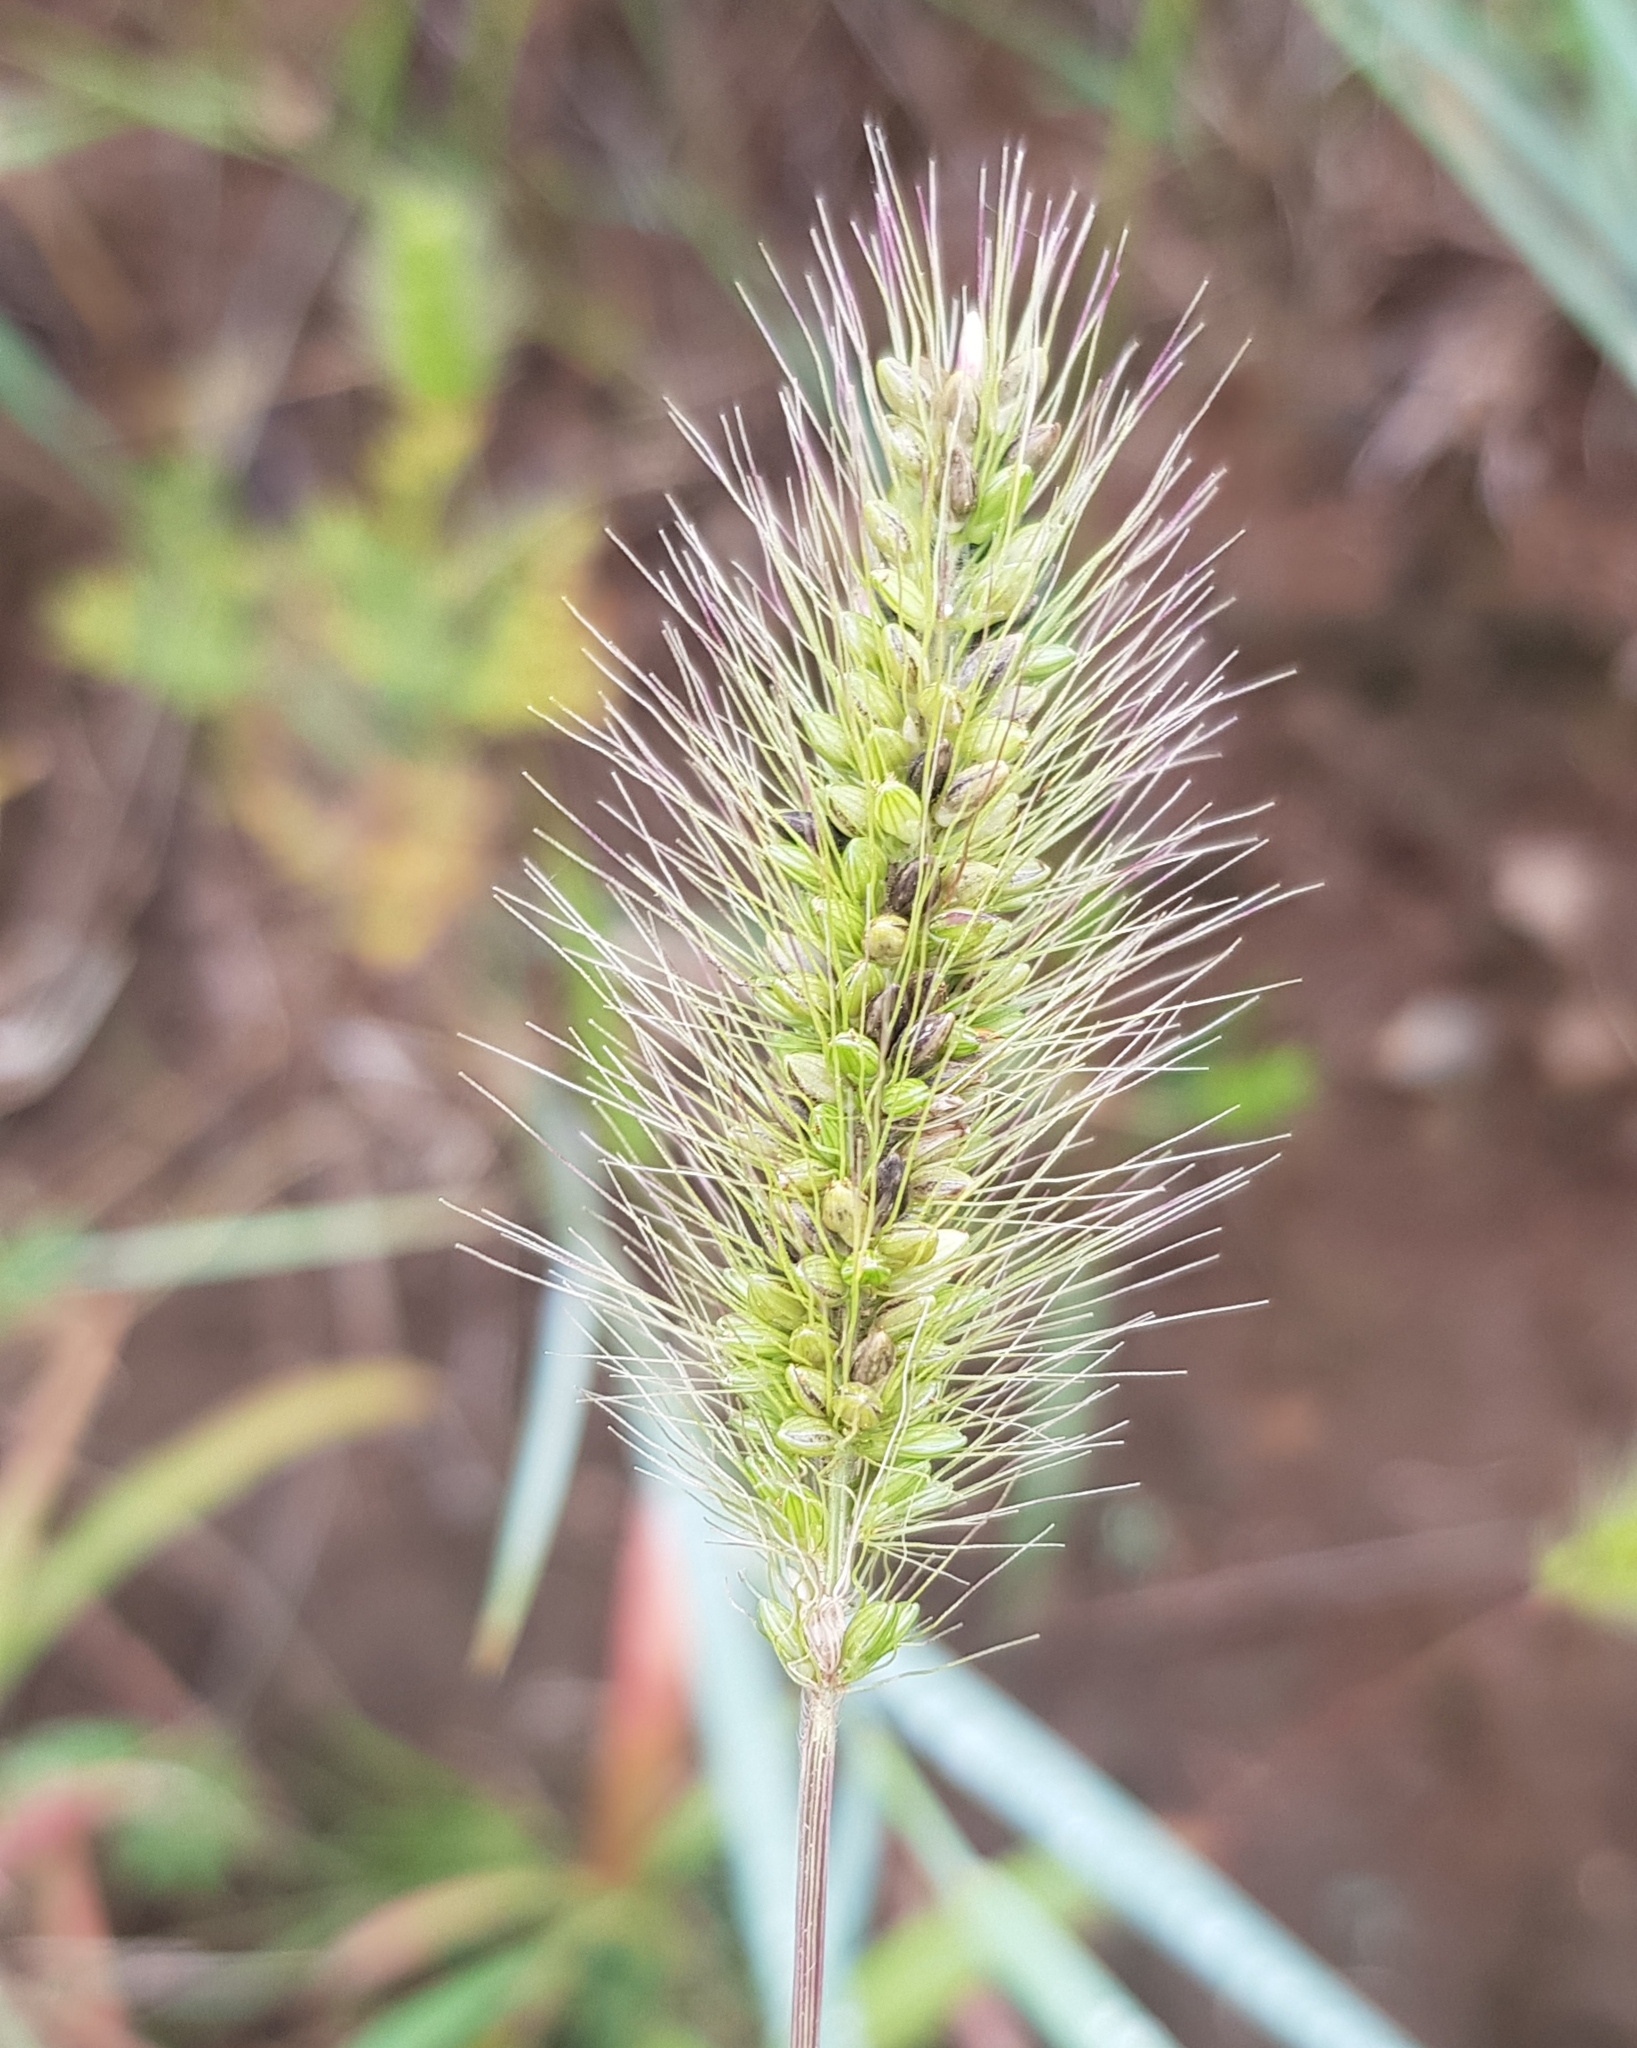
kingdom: Plantae
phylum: Tracheophyta
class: Liliopsida
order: Poales
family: Poaceae
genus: Setaria
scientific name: Setaria viridis
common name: Green bristlegrass
